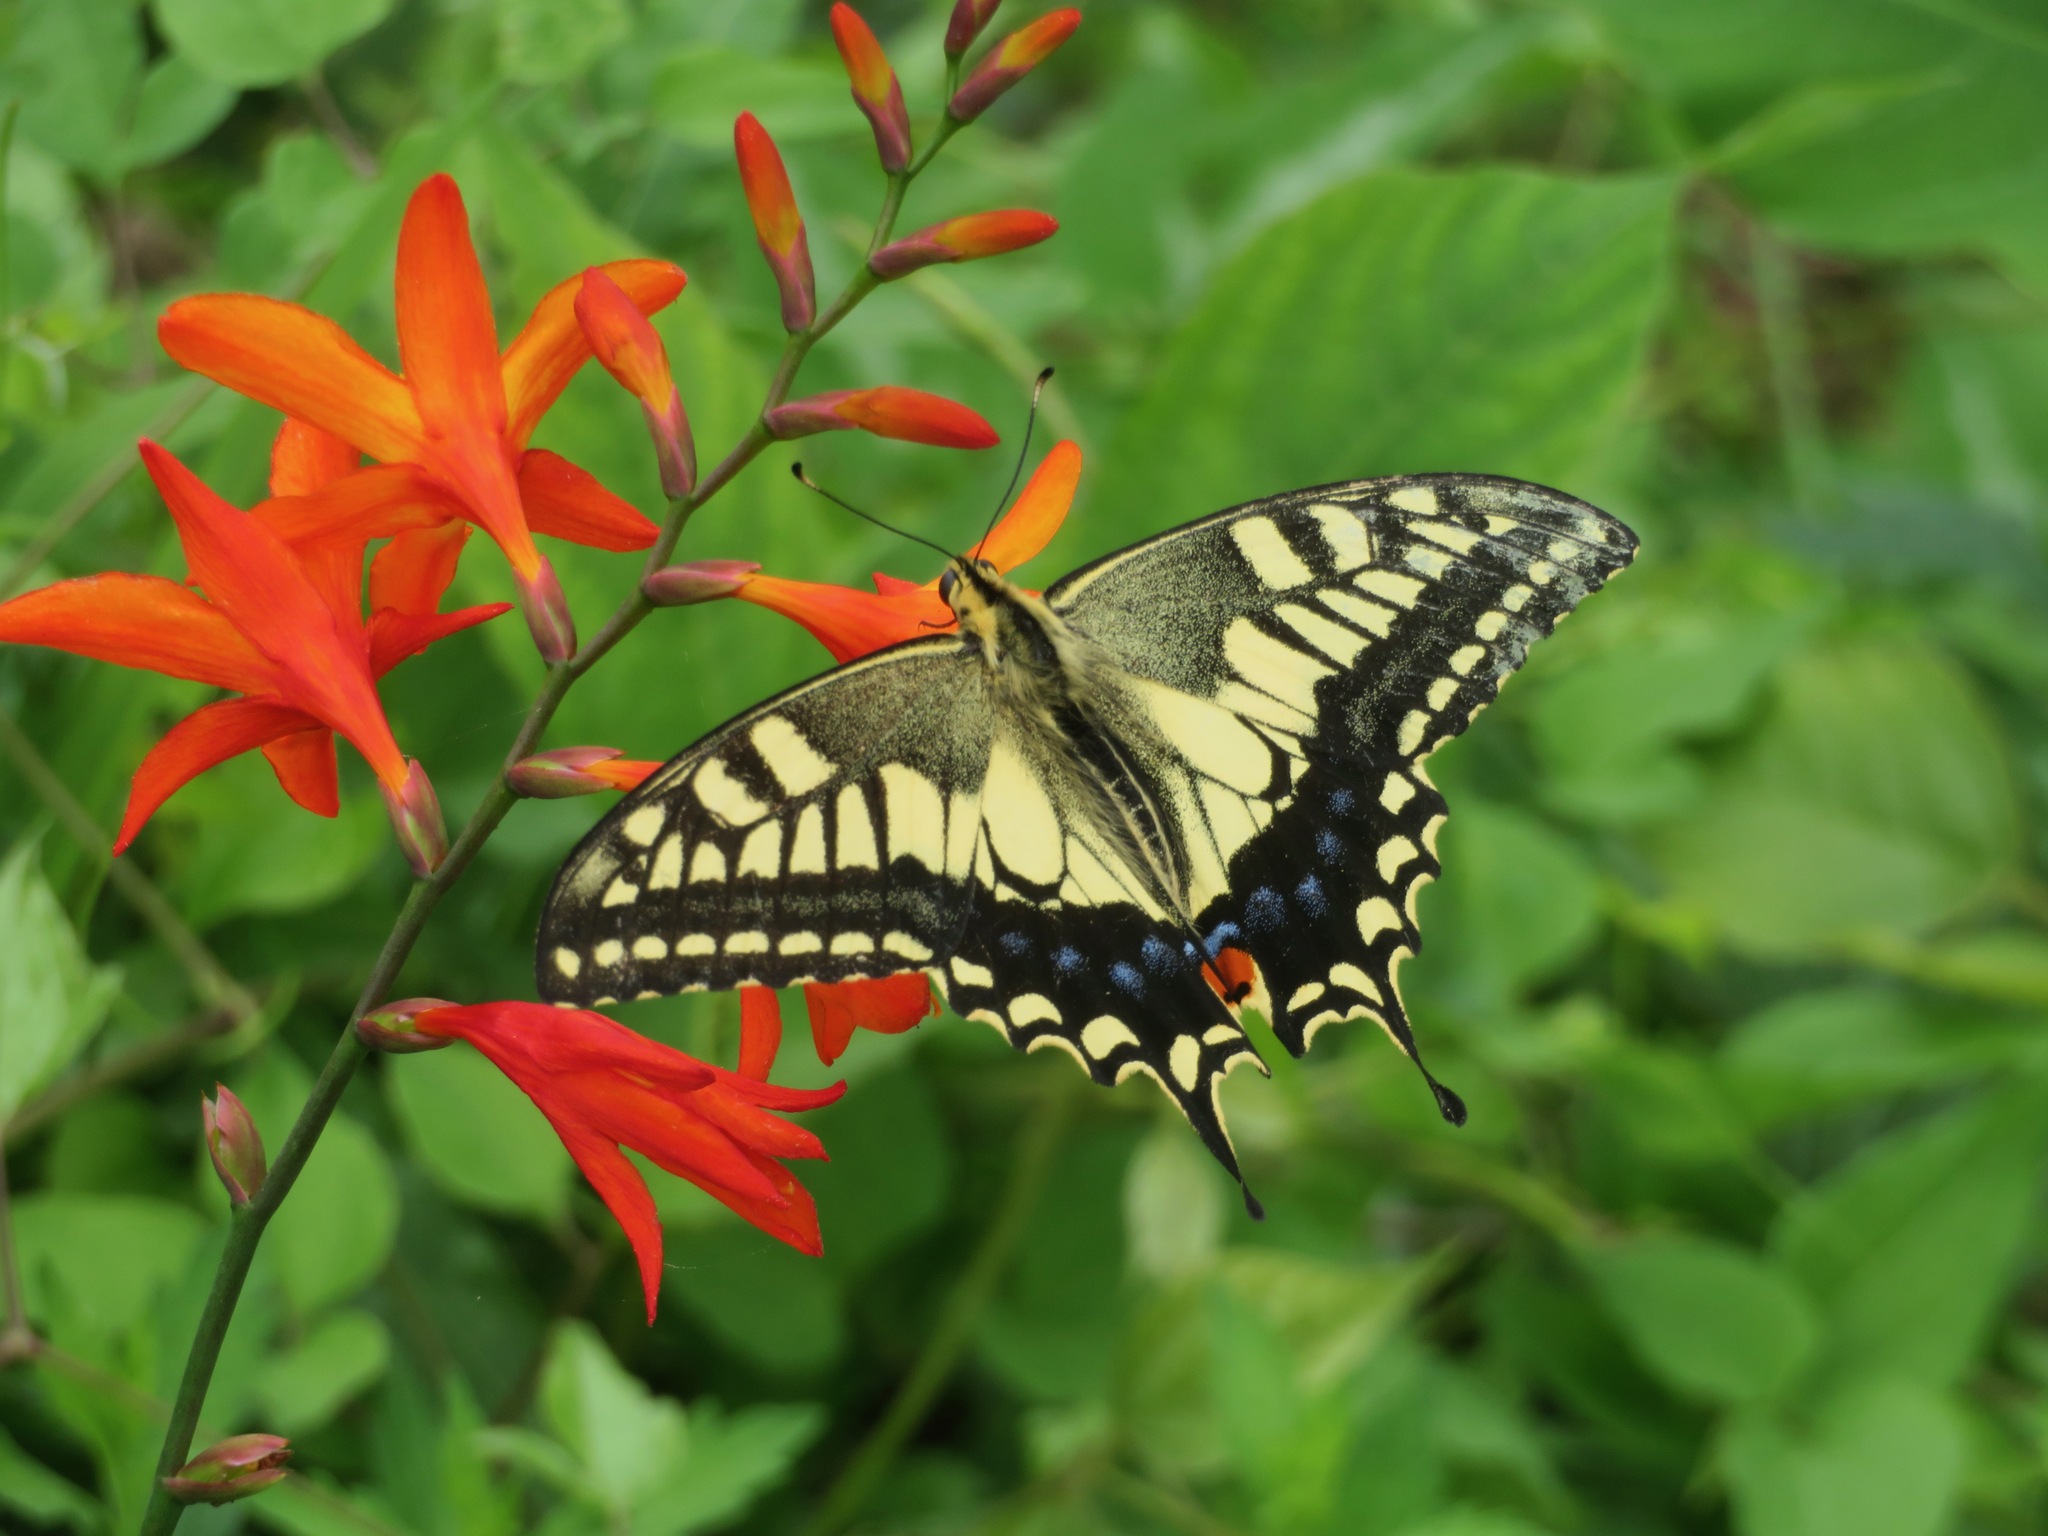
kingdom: Animalia
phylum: Arthropoda
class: Insecta
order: Lepidoptera
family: Papilionidae
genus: Papilio
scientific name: Papilio machaon
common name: Swallowtail
